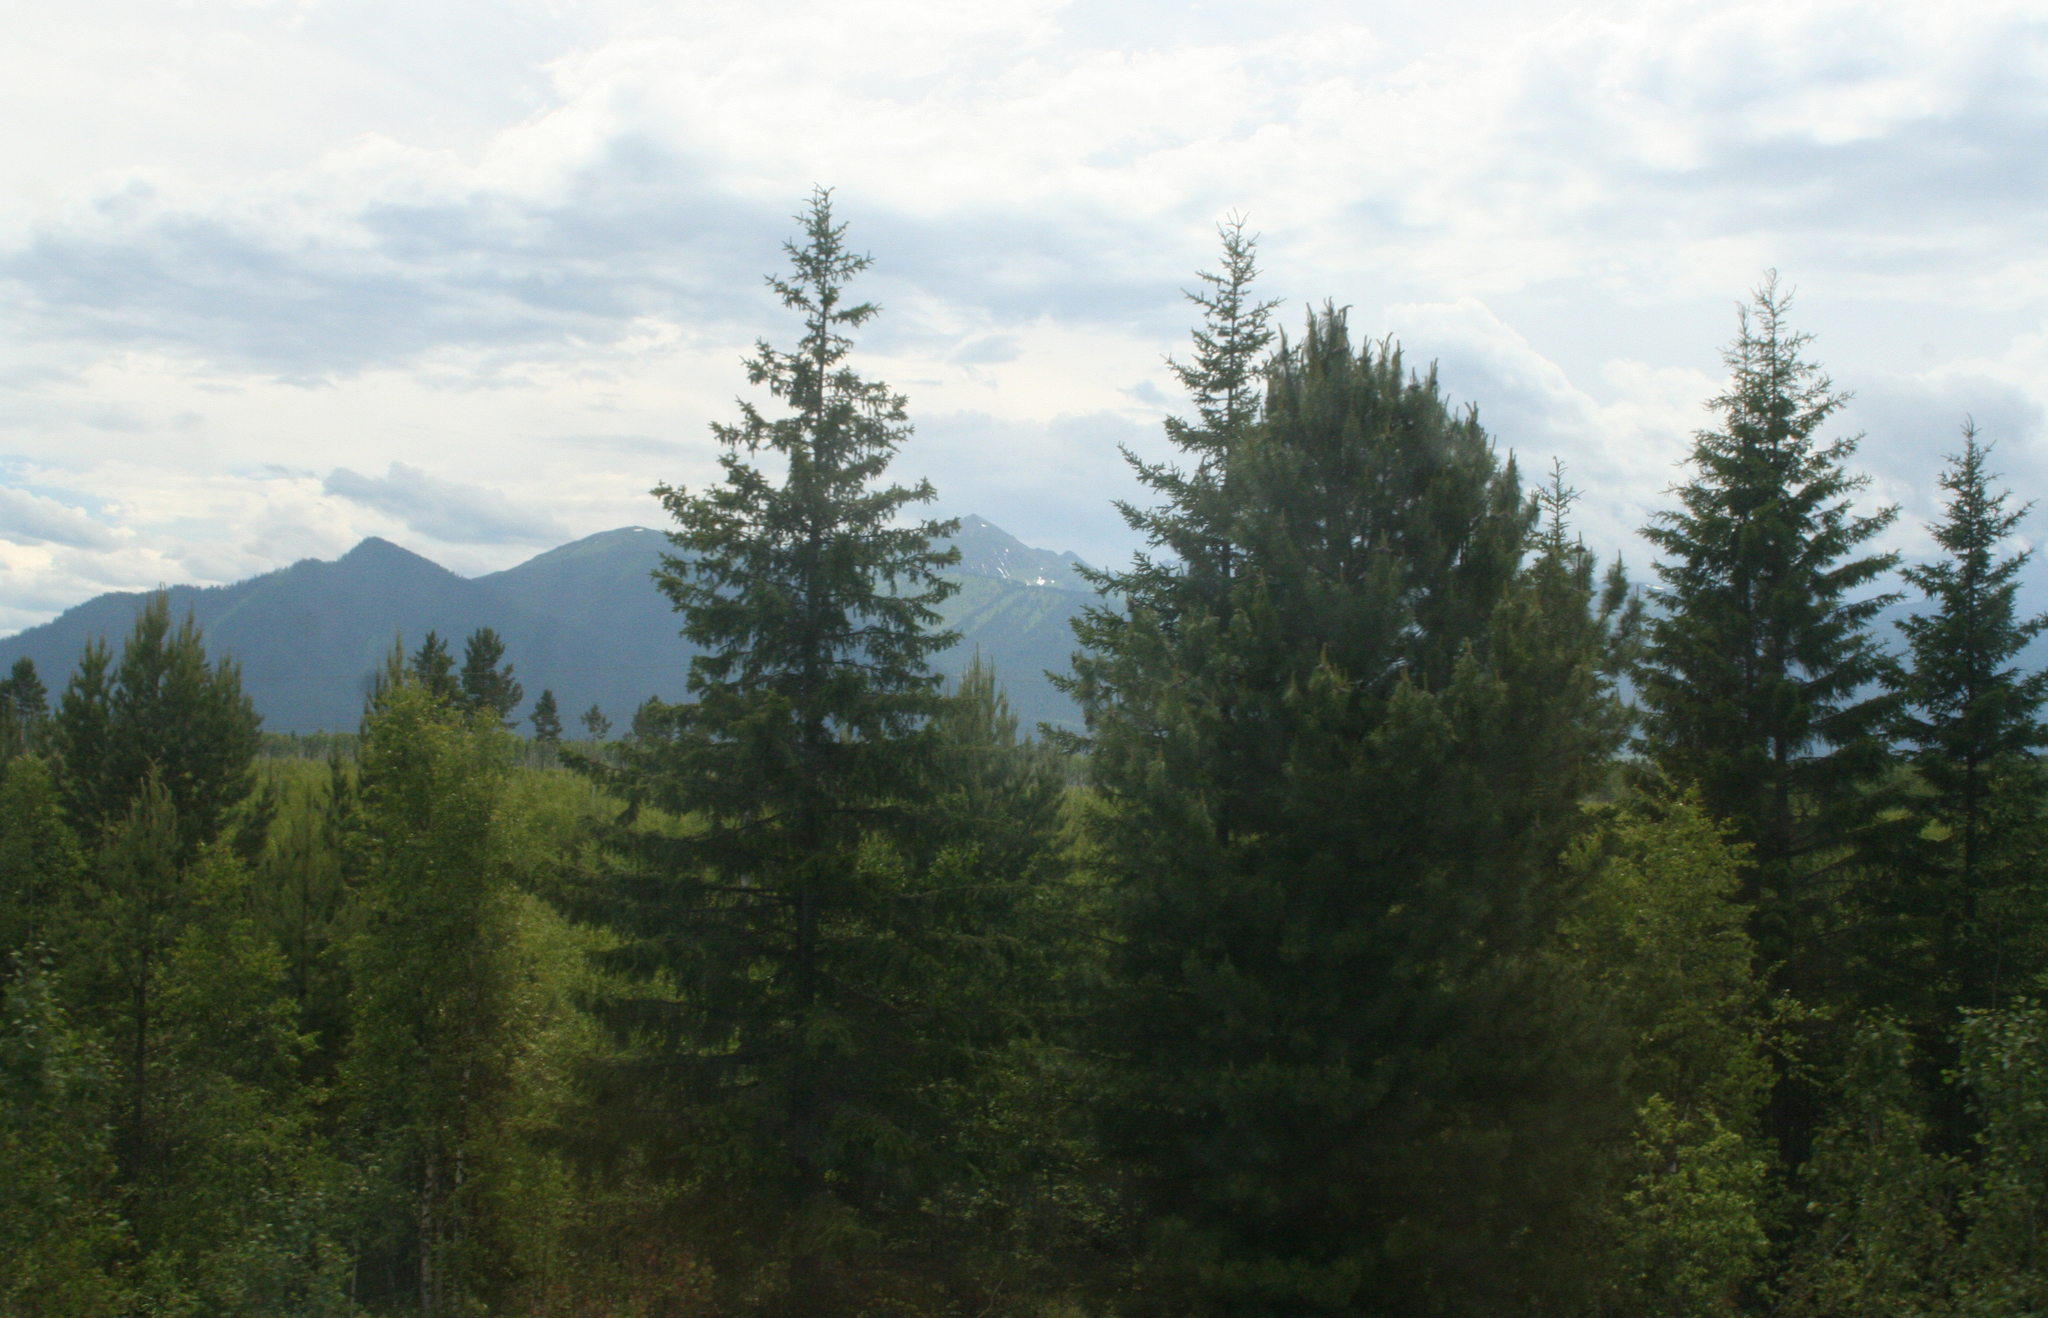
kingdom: Plantae
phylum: Tracheophyta
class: Pinopsida
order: Pinales
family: Pinaceae
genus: Pinus
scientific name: Pinus sylvestris
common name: Scots pine
